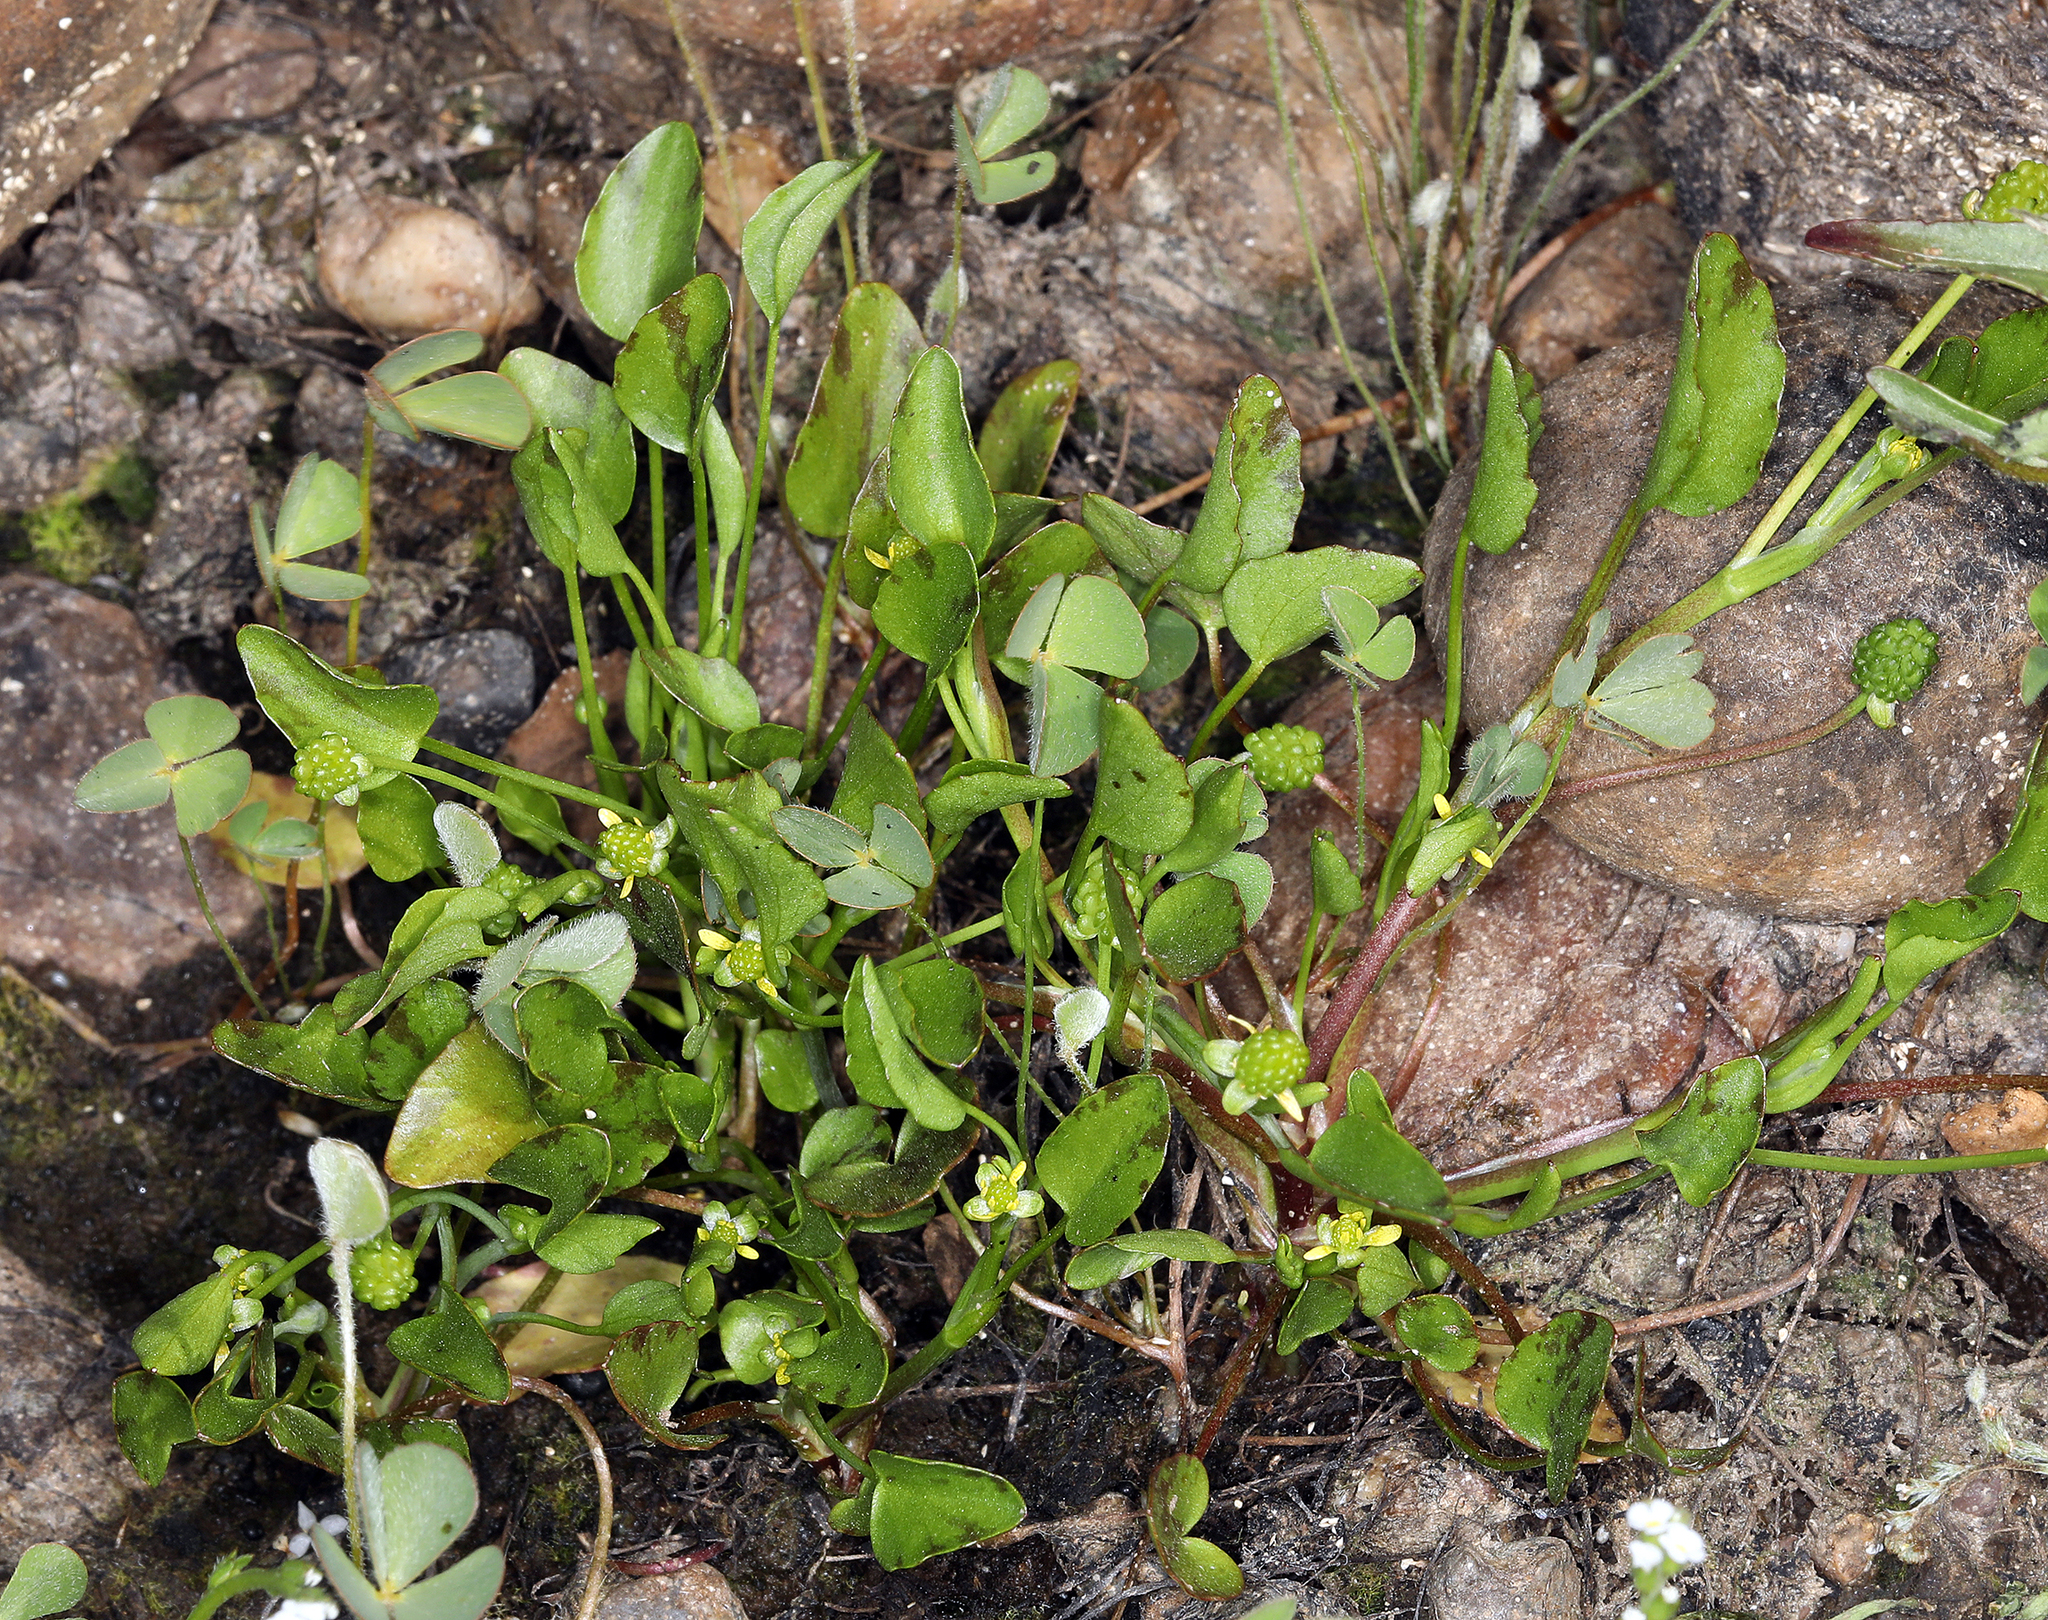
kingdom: Plantae
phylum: Tracheophyta
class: Magnoliopsida
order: Ranunculales
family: Ranunculaceae
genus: Ranunculus
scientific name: Ranunculus bonariensis
